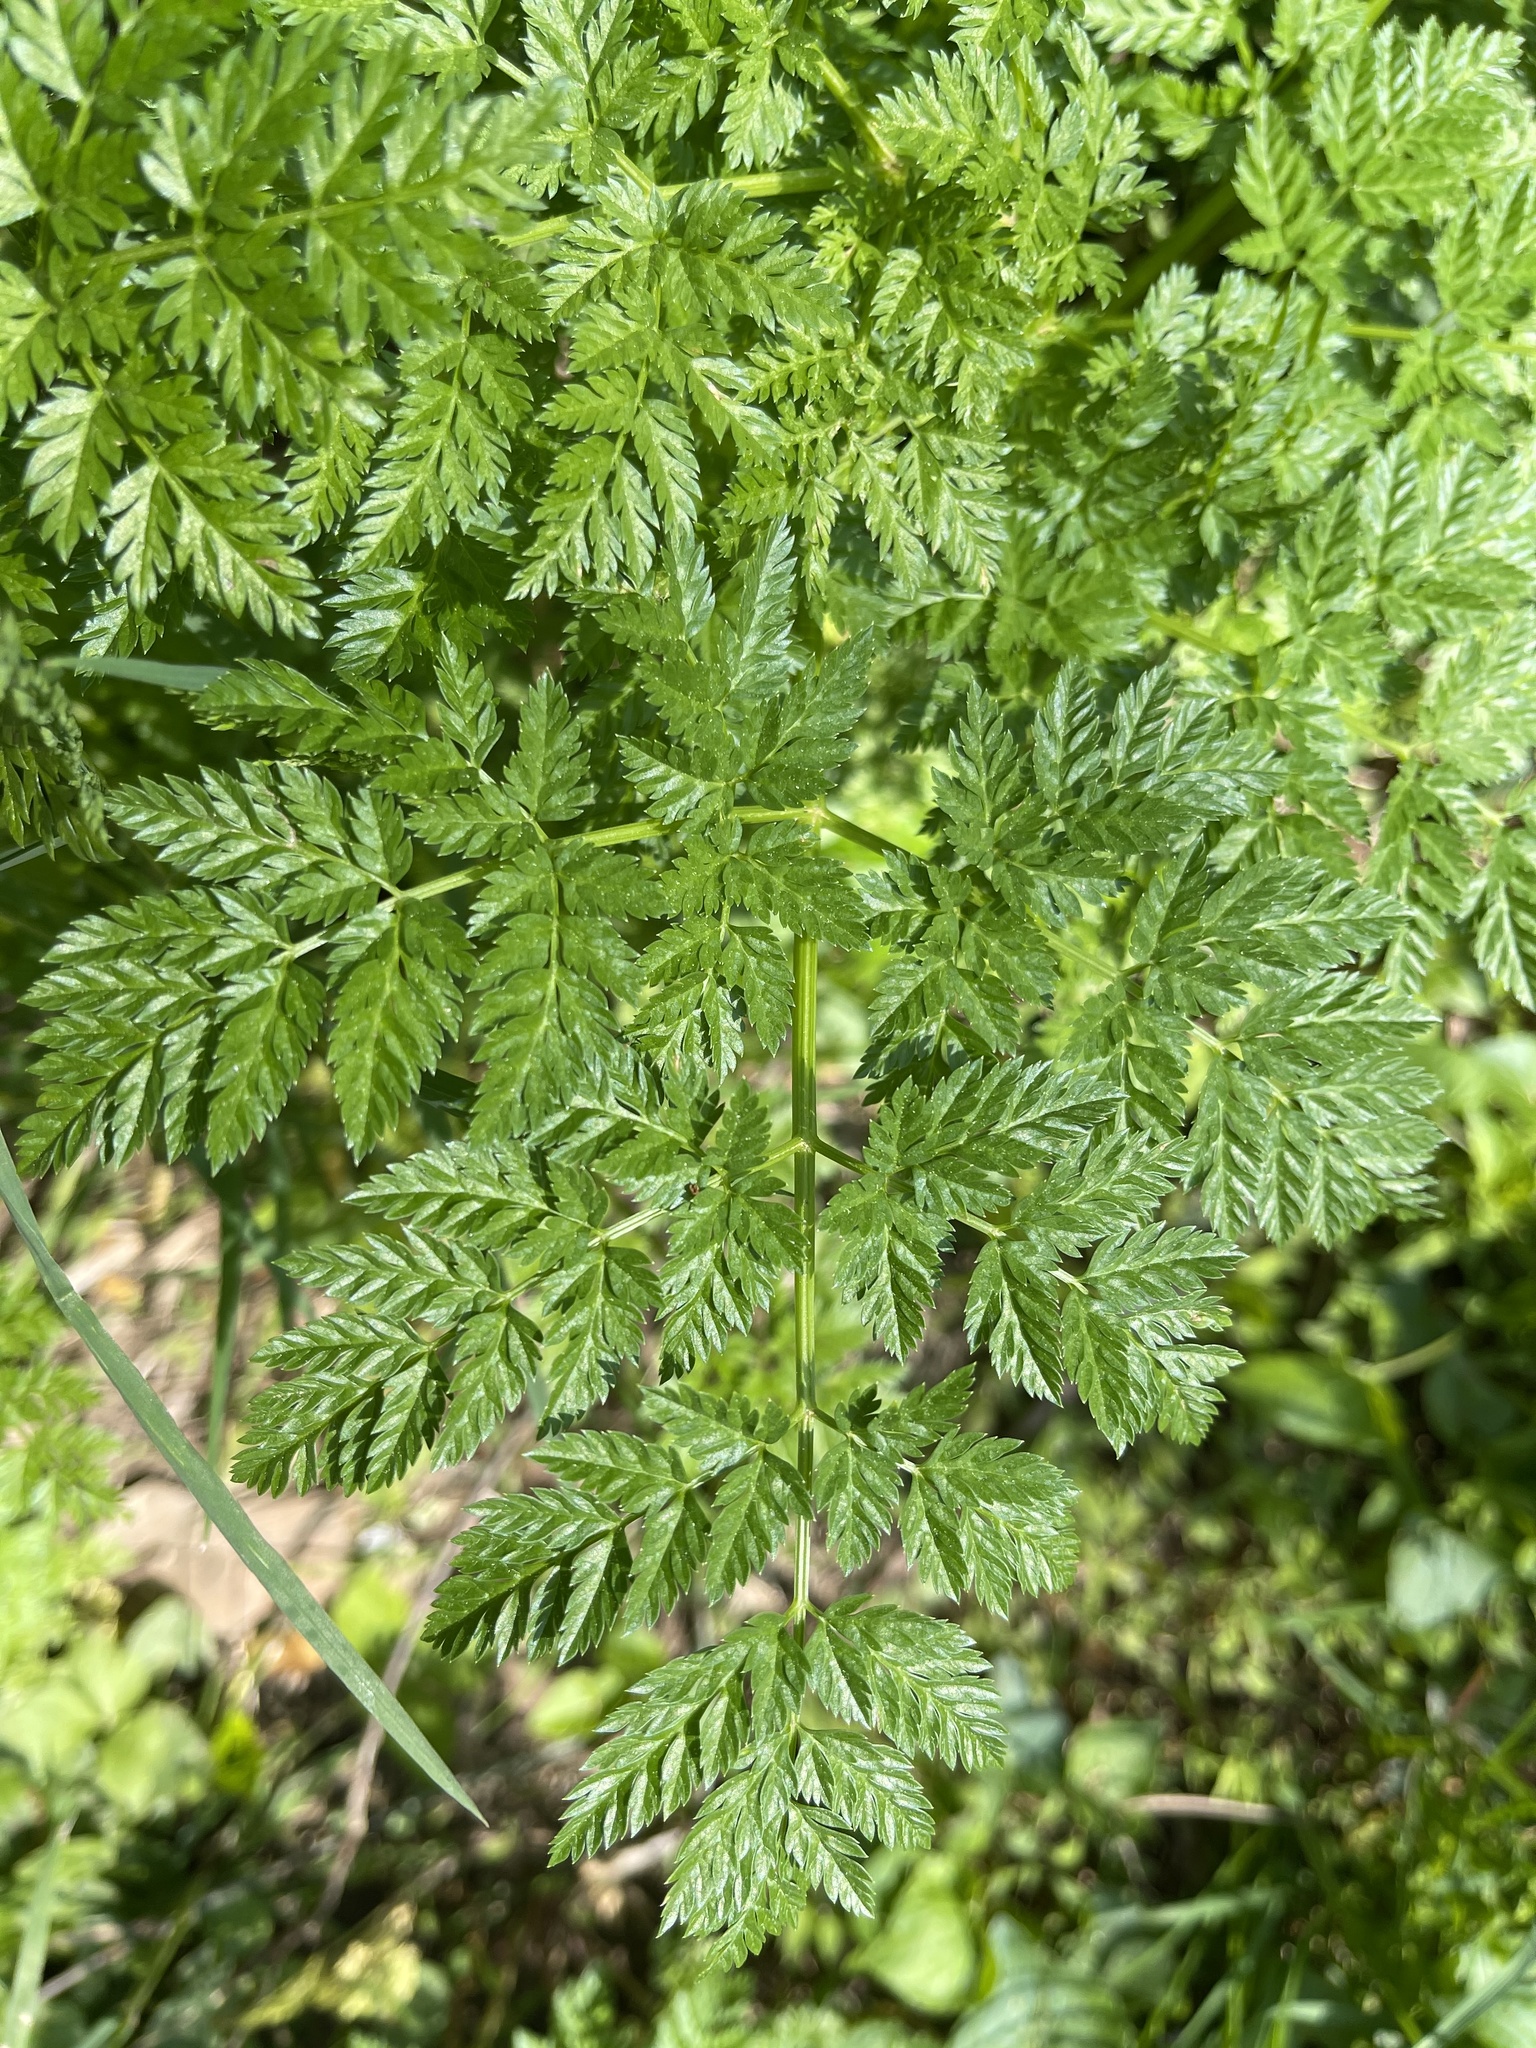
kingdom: Plantae
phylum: Tracheophyta
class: Magnoliopsida
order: Apiales
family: Apiaceae
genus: Conium
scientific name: Conium maculatum
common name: Hemlock
